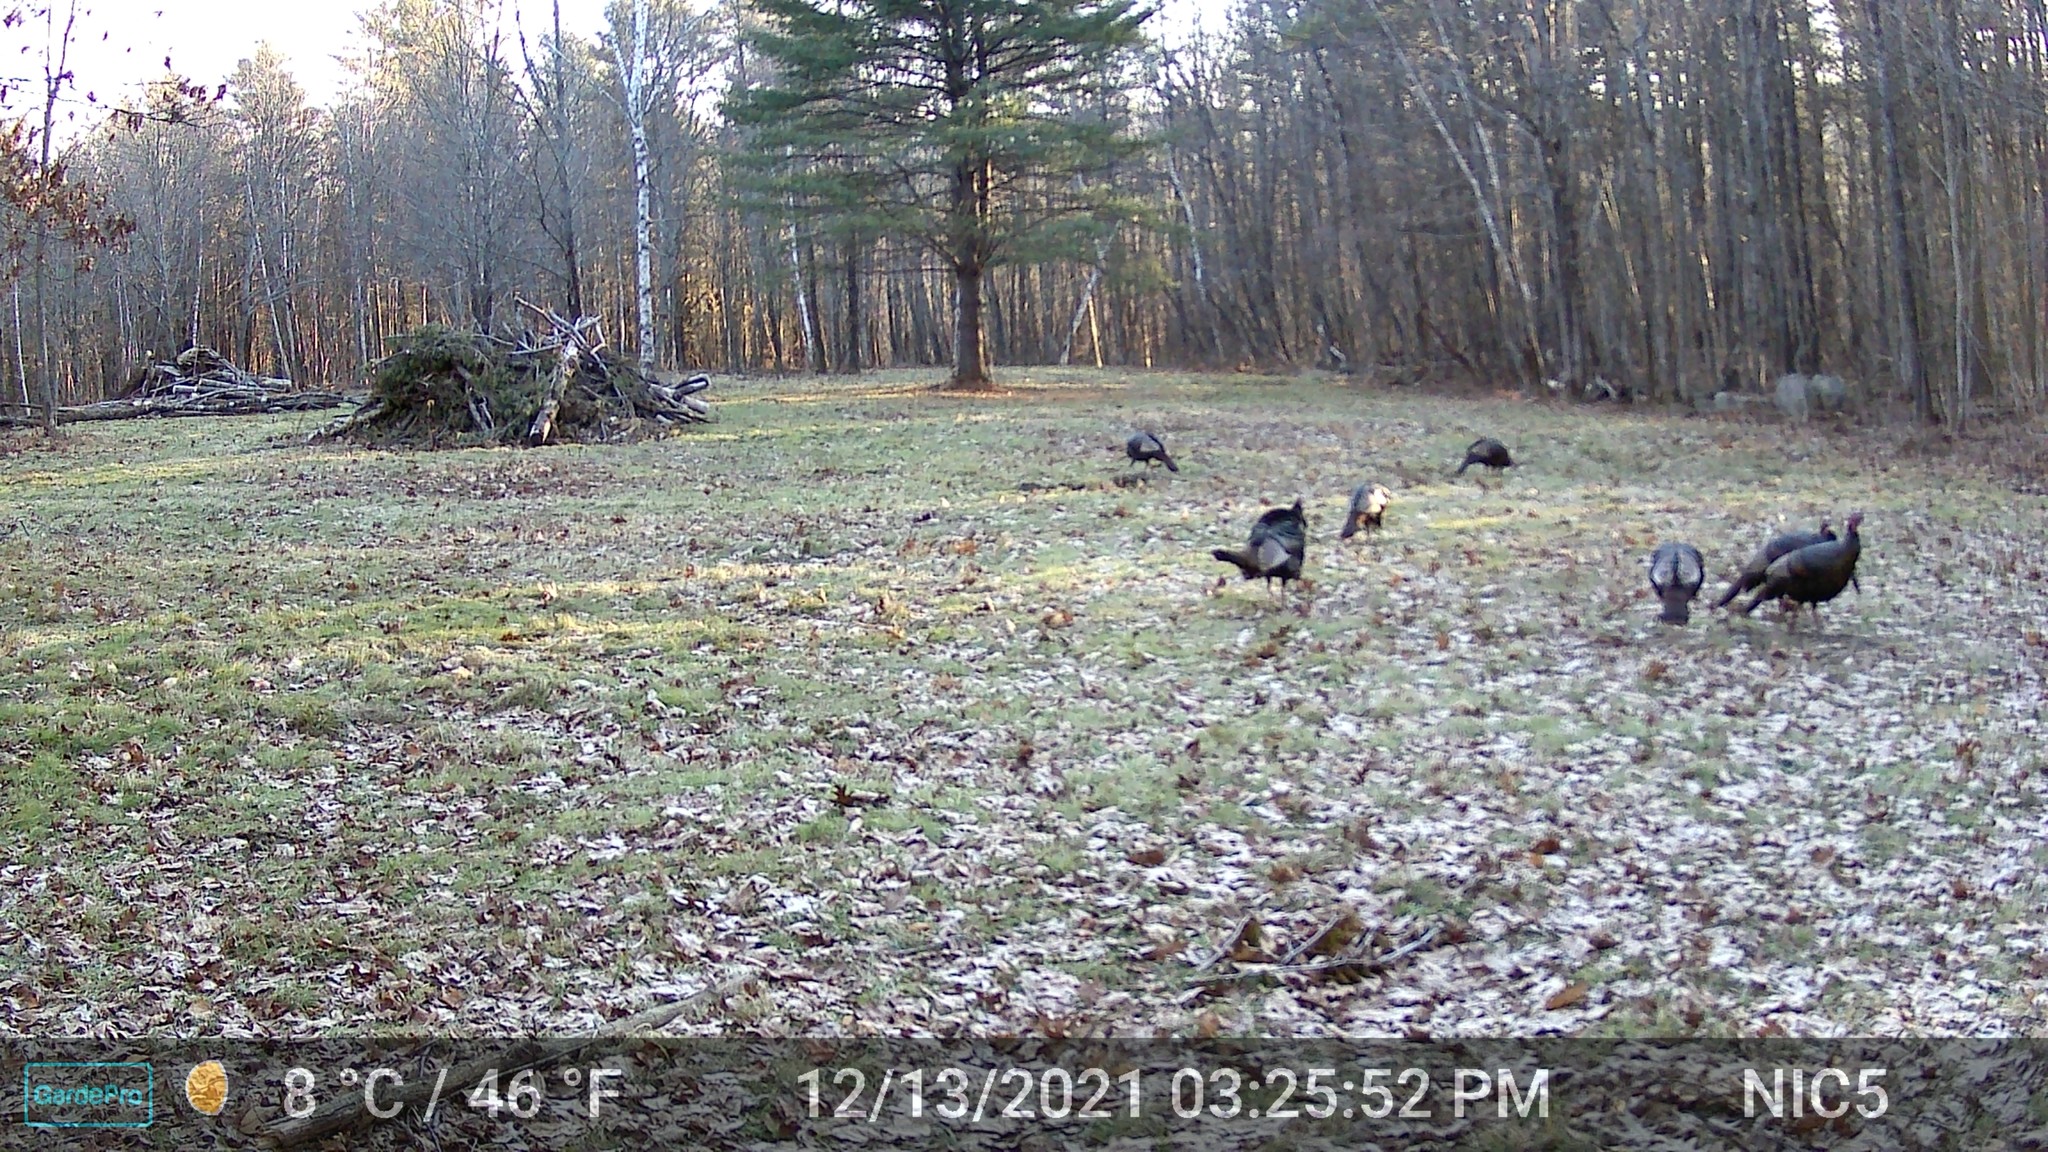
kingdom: Animalia
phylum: Chordata
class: Aves
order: Galliformes
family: Phasianidae
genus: Meleagris
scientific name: Meleagris gallopavo
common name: Wild turkey
